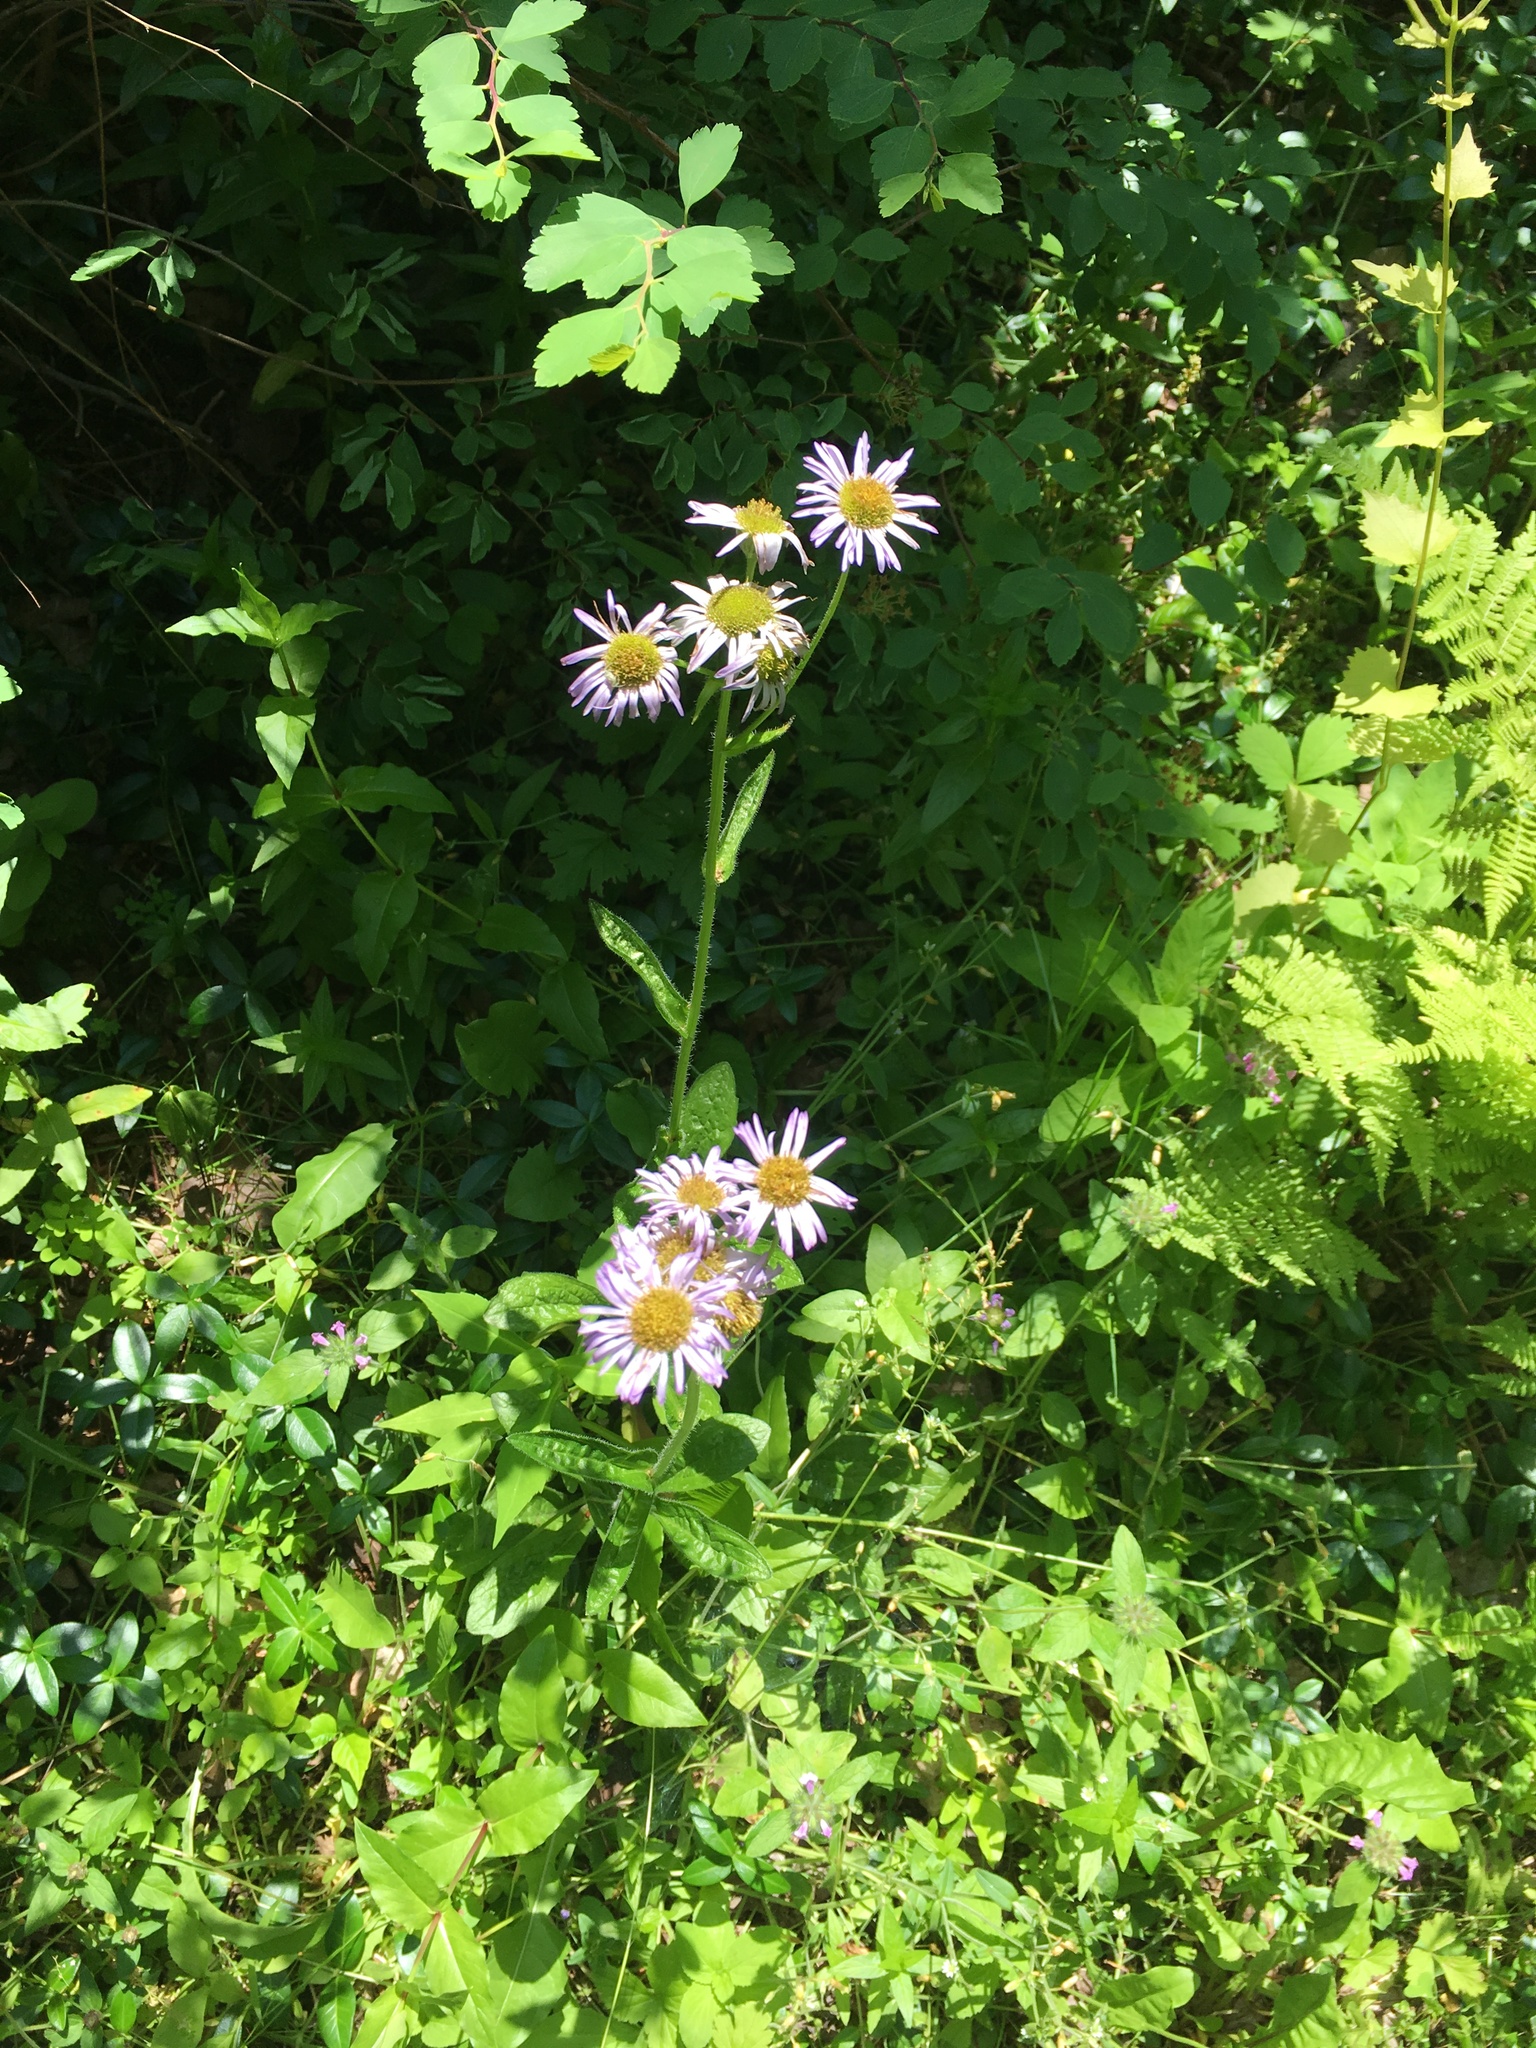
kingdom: Plantae
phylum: Tracheophyta
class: Magnoliopsida
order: Asterales
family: Asteraceae
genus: Erigeron
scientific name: Erigeron pulchellus
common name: Hairy fleabane
